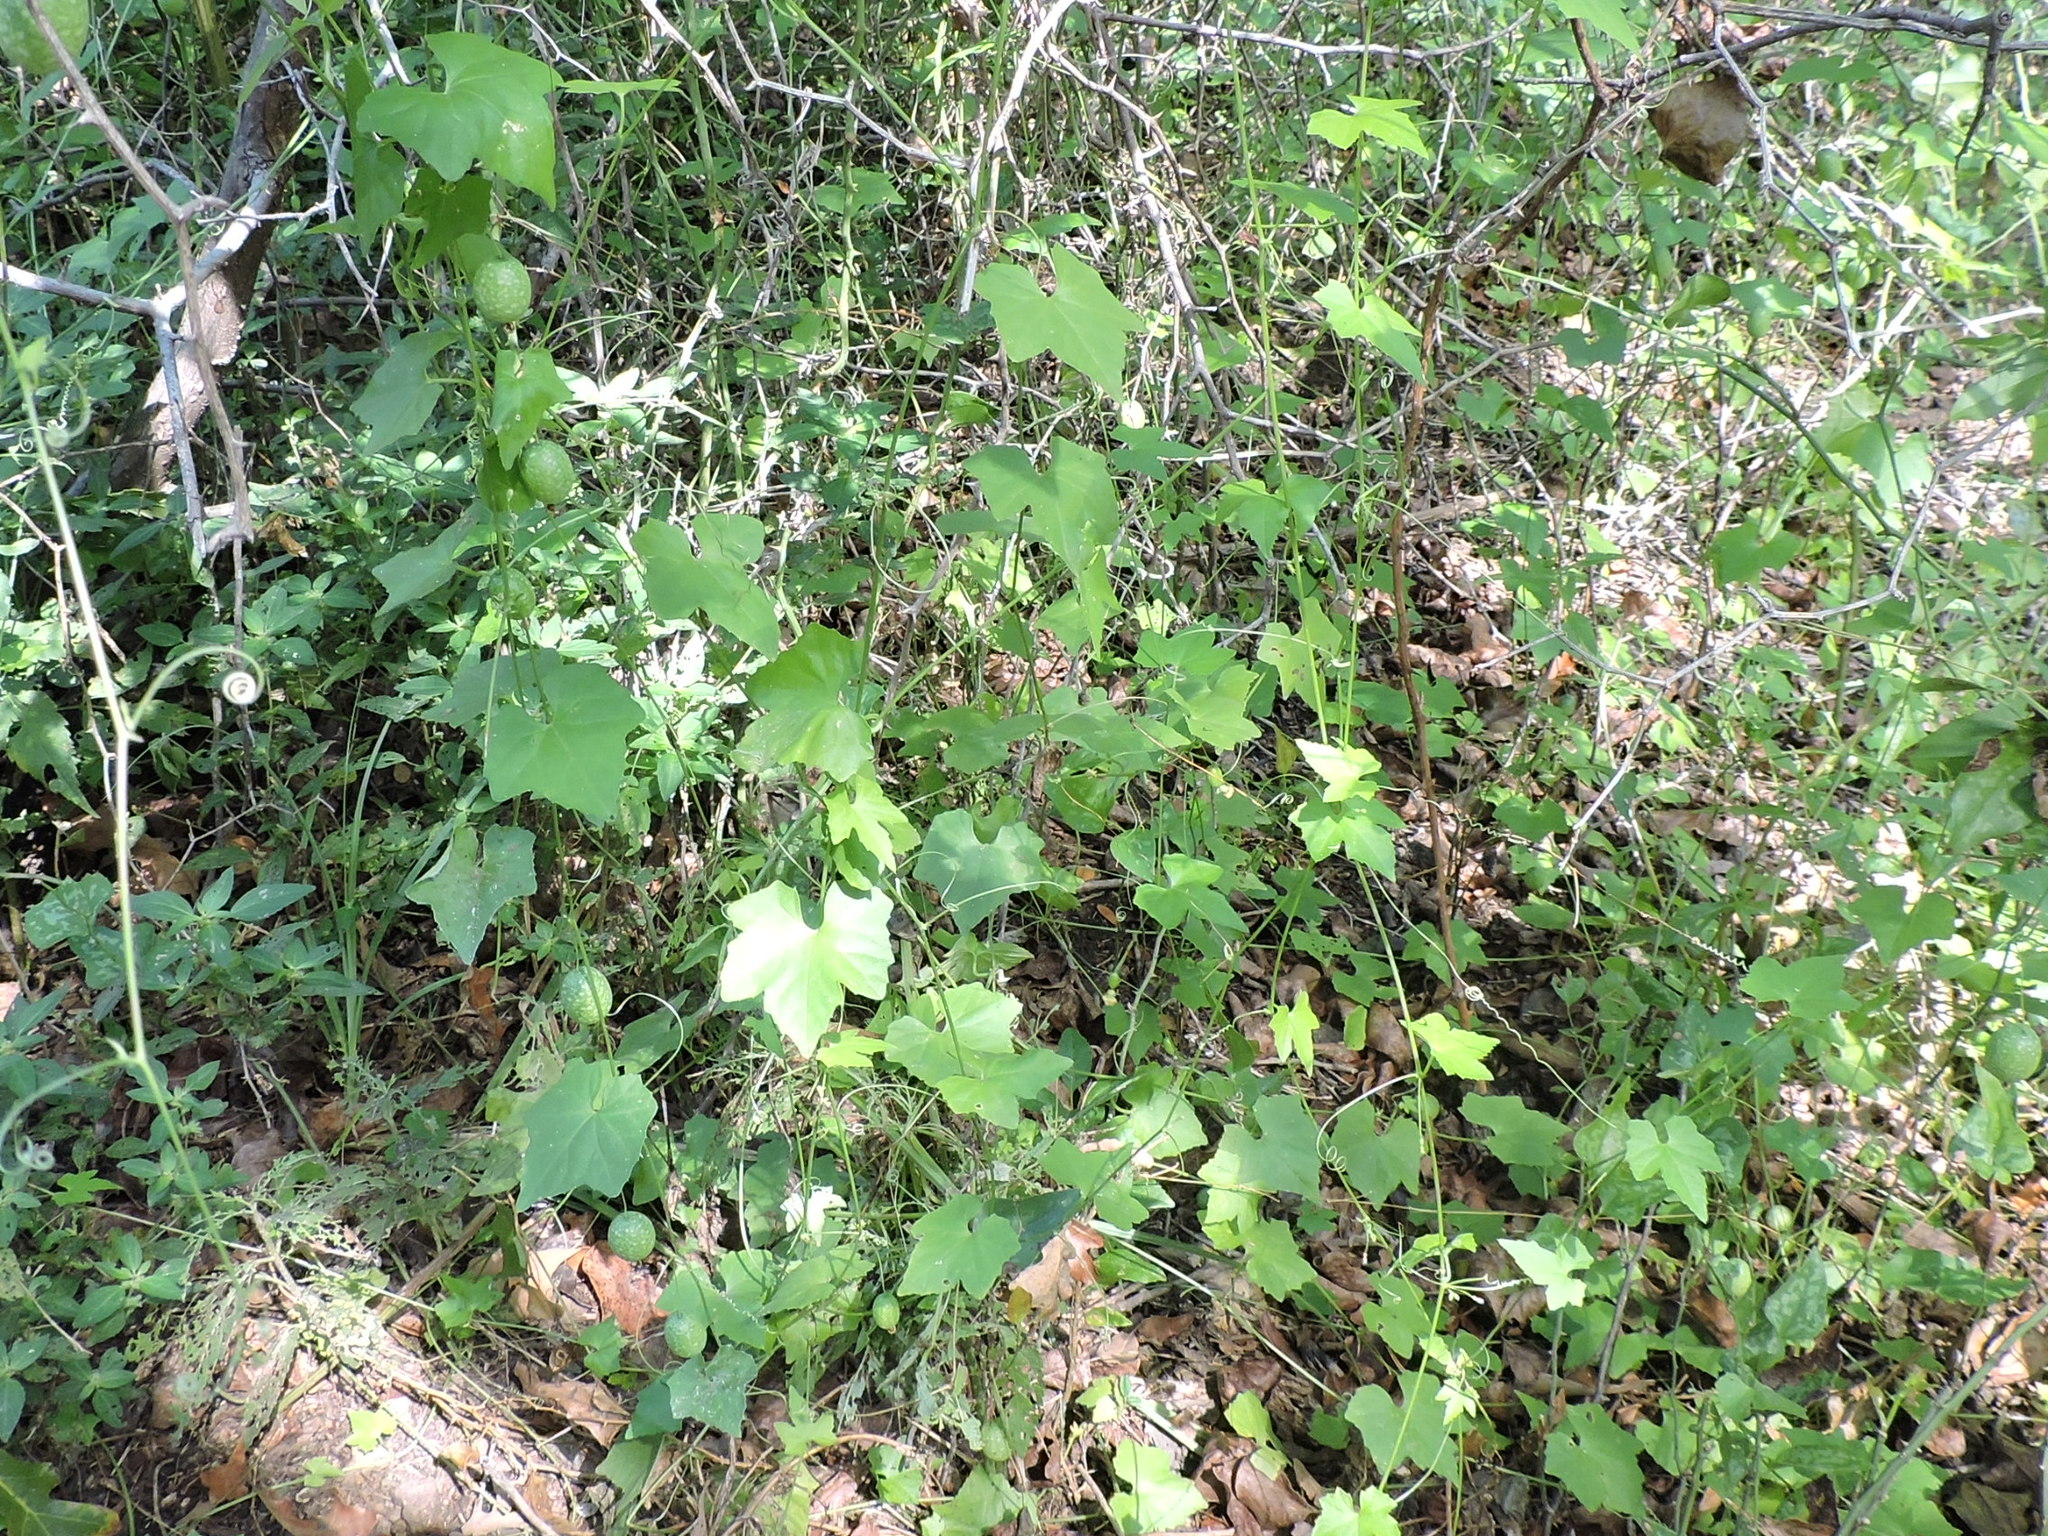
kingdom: Plantae
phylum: Tracheophyta
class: Magnoliopsida
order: Cucurbitales
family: Cucurbitaceae
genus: Melothria
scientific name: Melothria pendula
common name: Creeping-cucumber
